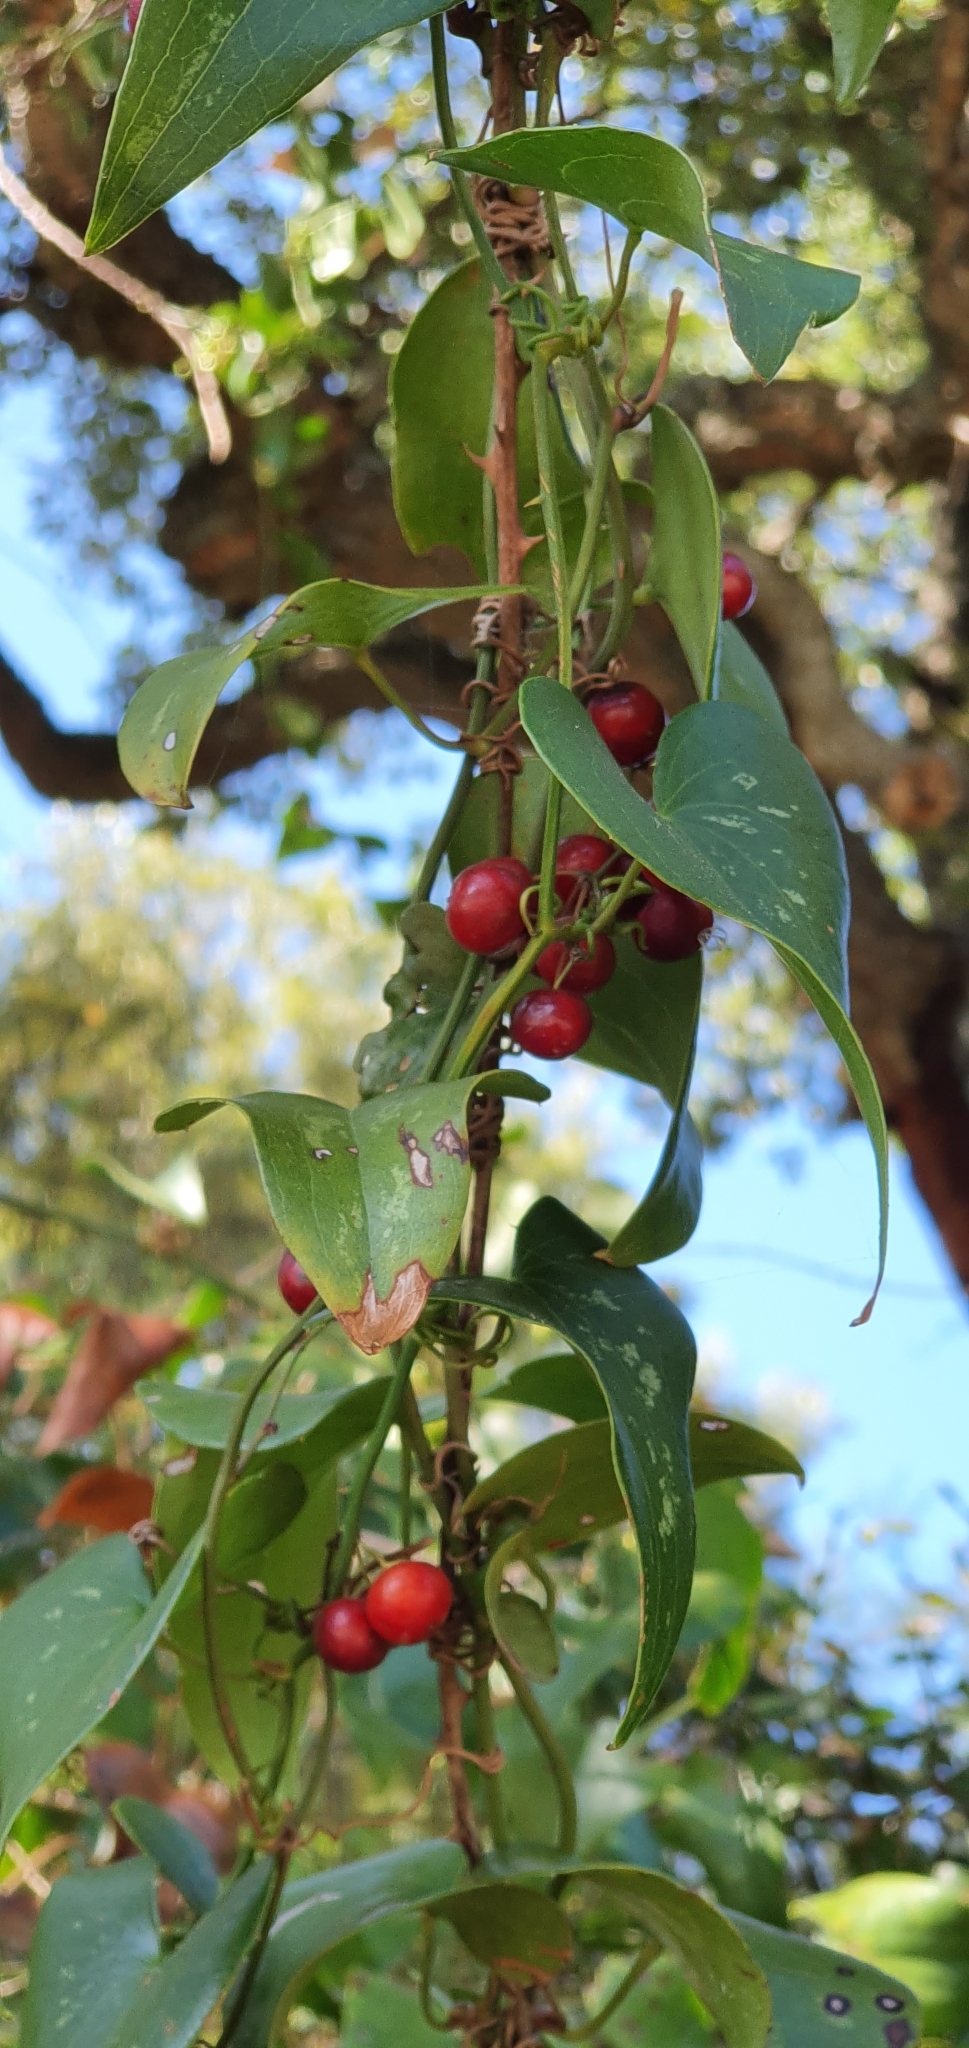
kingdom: Plantae
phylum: Tracheophyta
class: Liliopsida
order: Liliales
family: Smilacaceae
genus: Smilax
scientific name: Smilax aspera
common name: Common smilax
